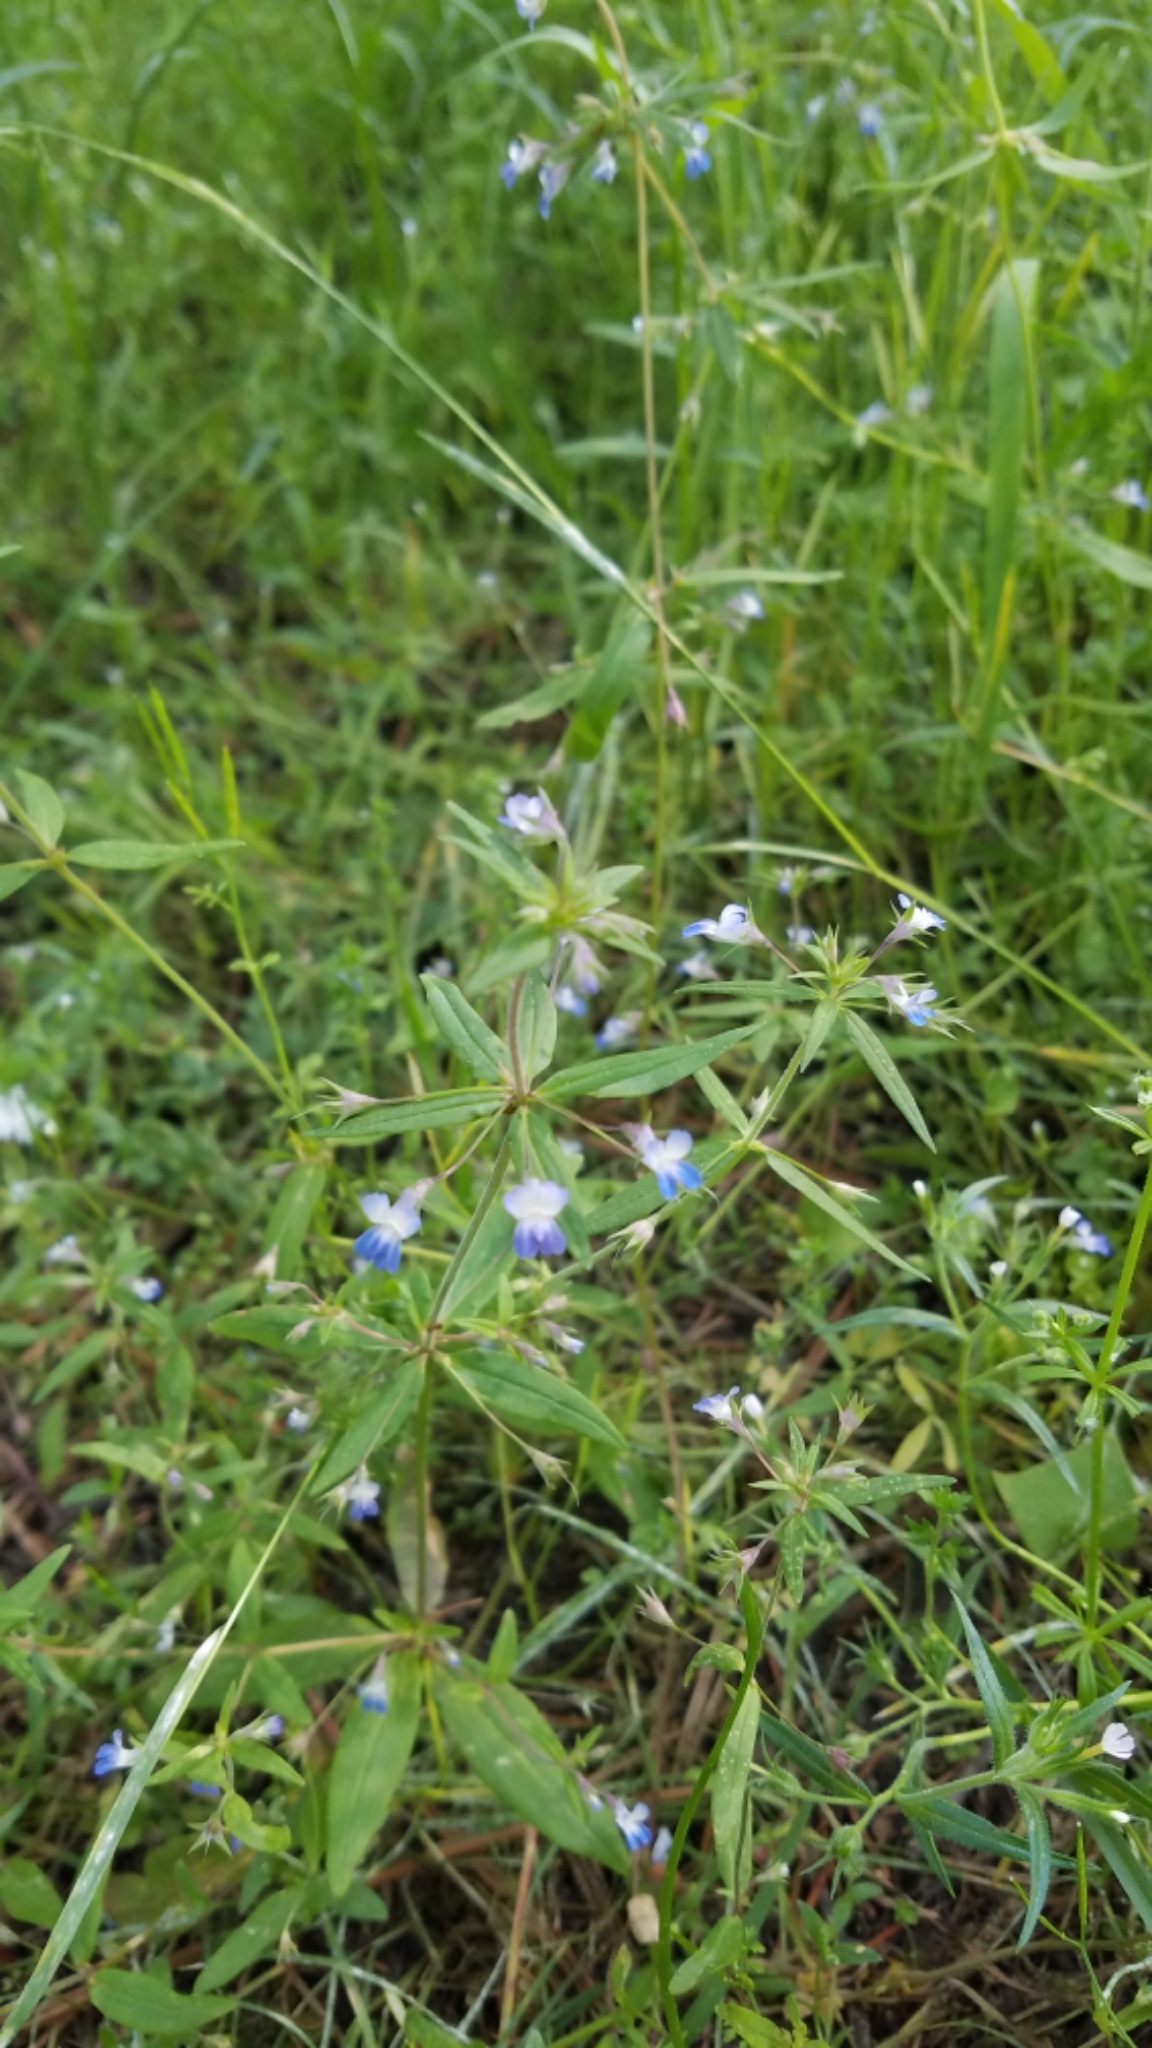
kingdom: Plantae
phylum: Tracheophyta
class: Magnoliopsida
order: Lamiales
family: Plantaginaceae
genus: Collinsia
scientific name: Collinsia parviflora
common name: Blue-lips
